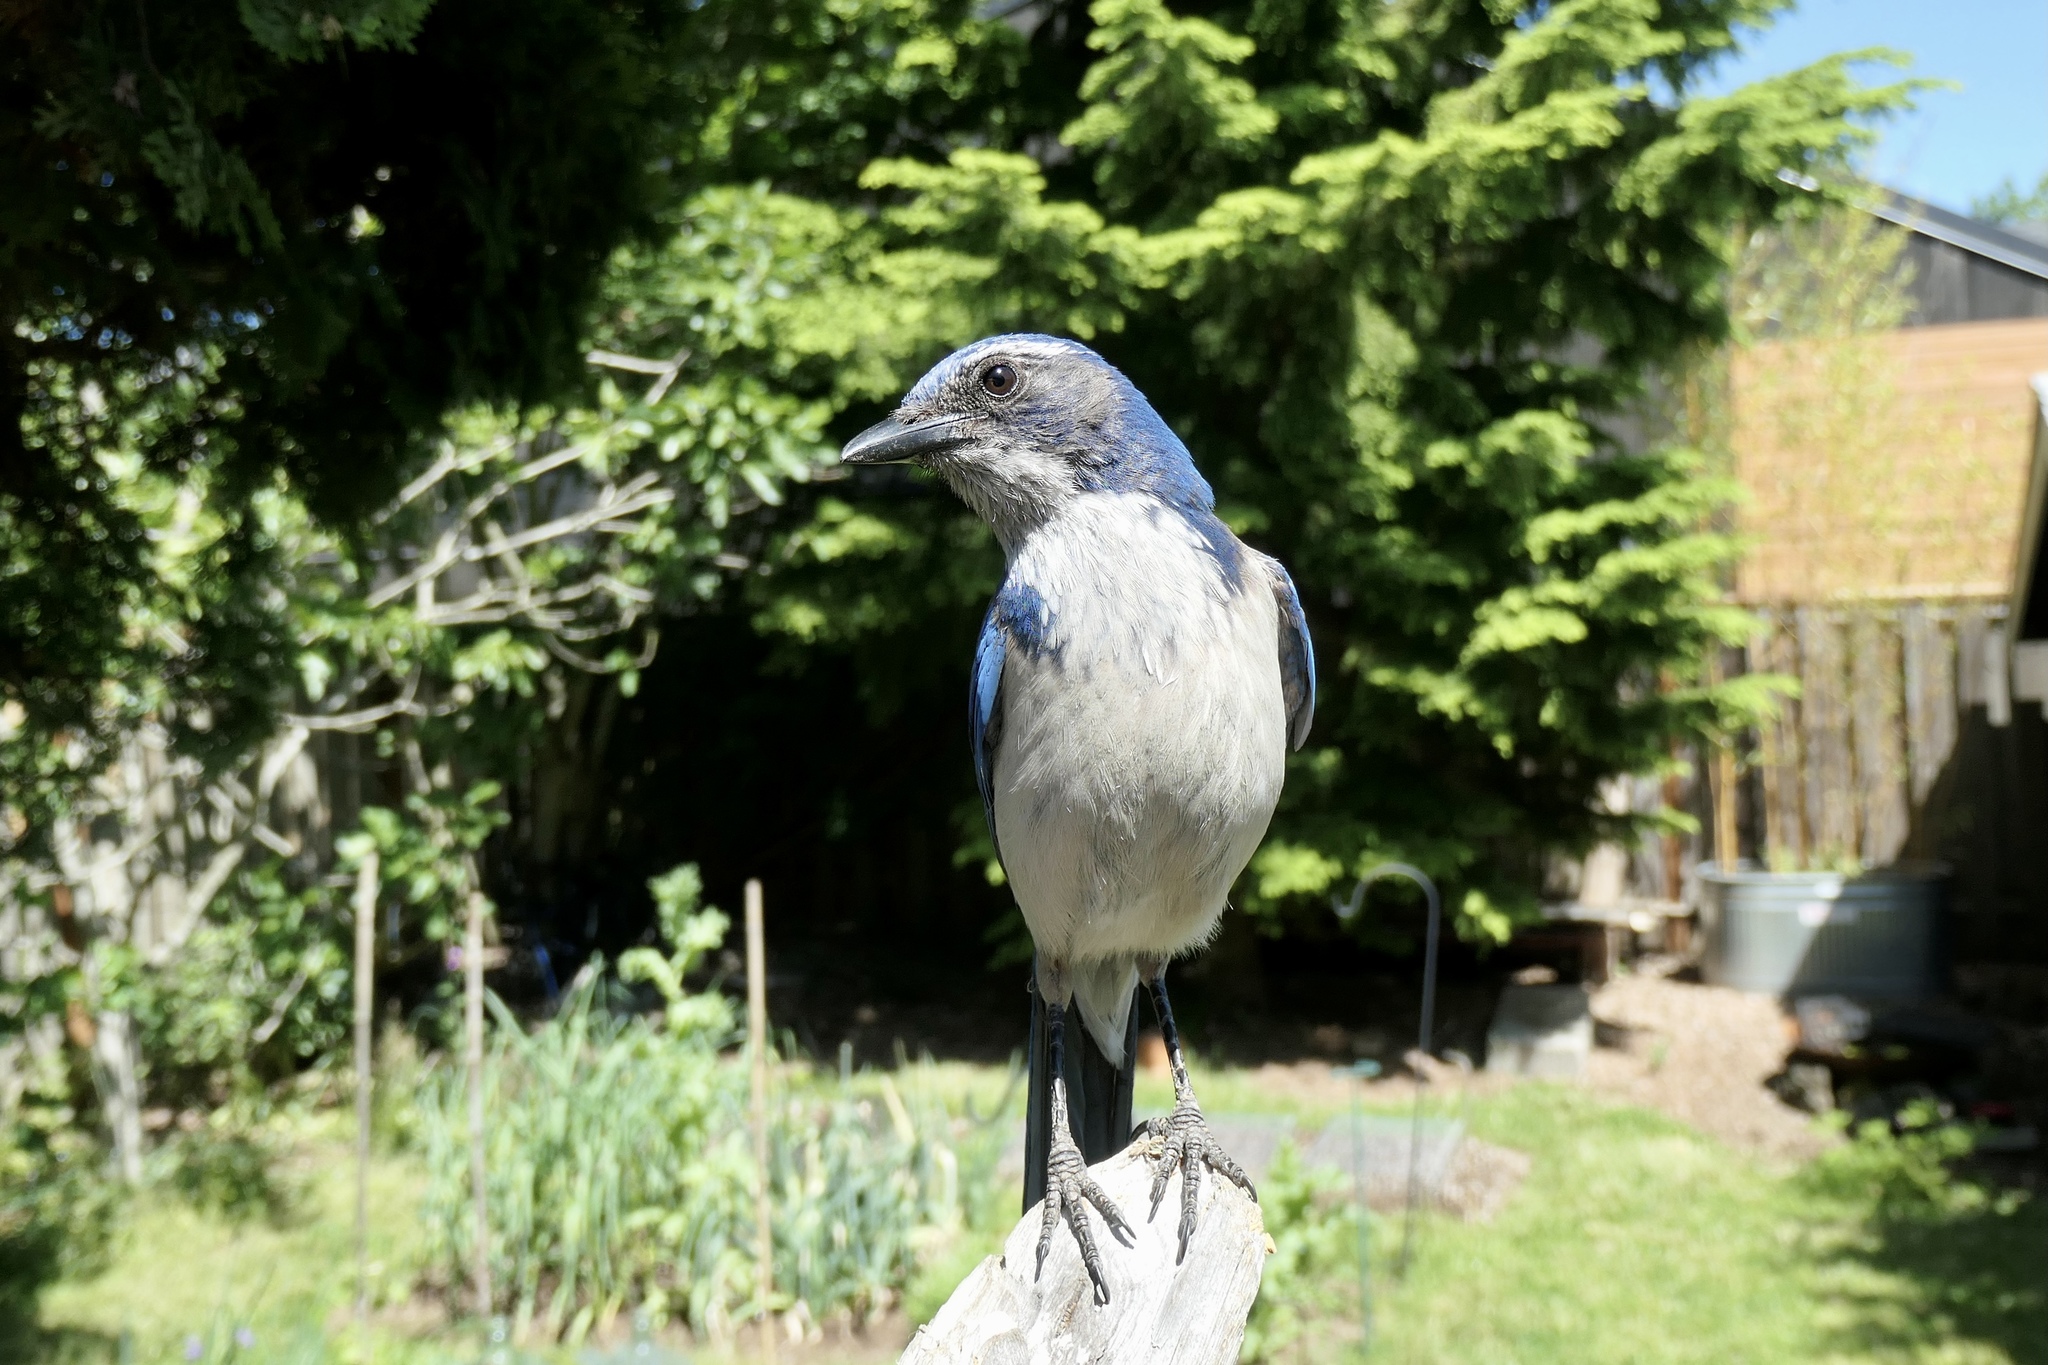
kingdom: Animalia
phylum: Chordata
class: Aves
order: Passeriformes
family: Corvidae
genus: Aphelocoma
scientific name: Aphelocoma californica
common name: California scrub-jay
